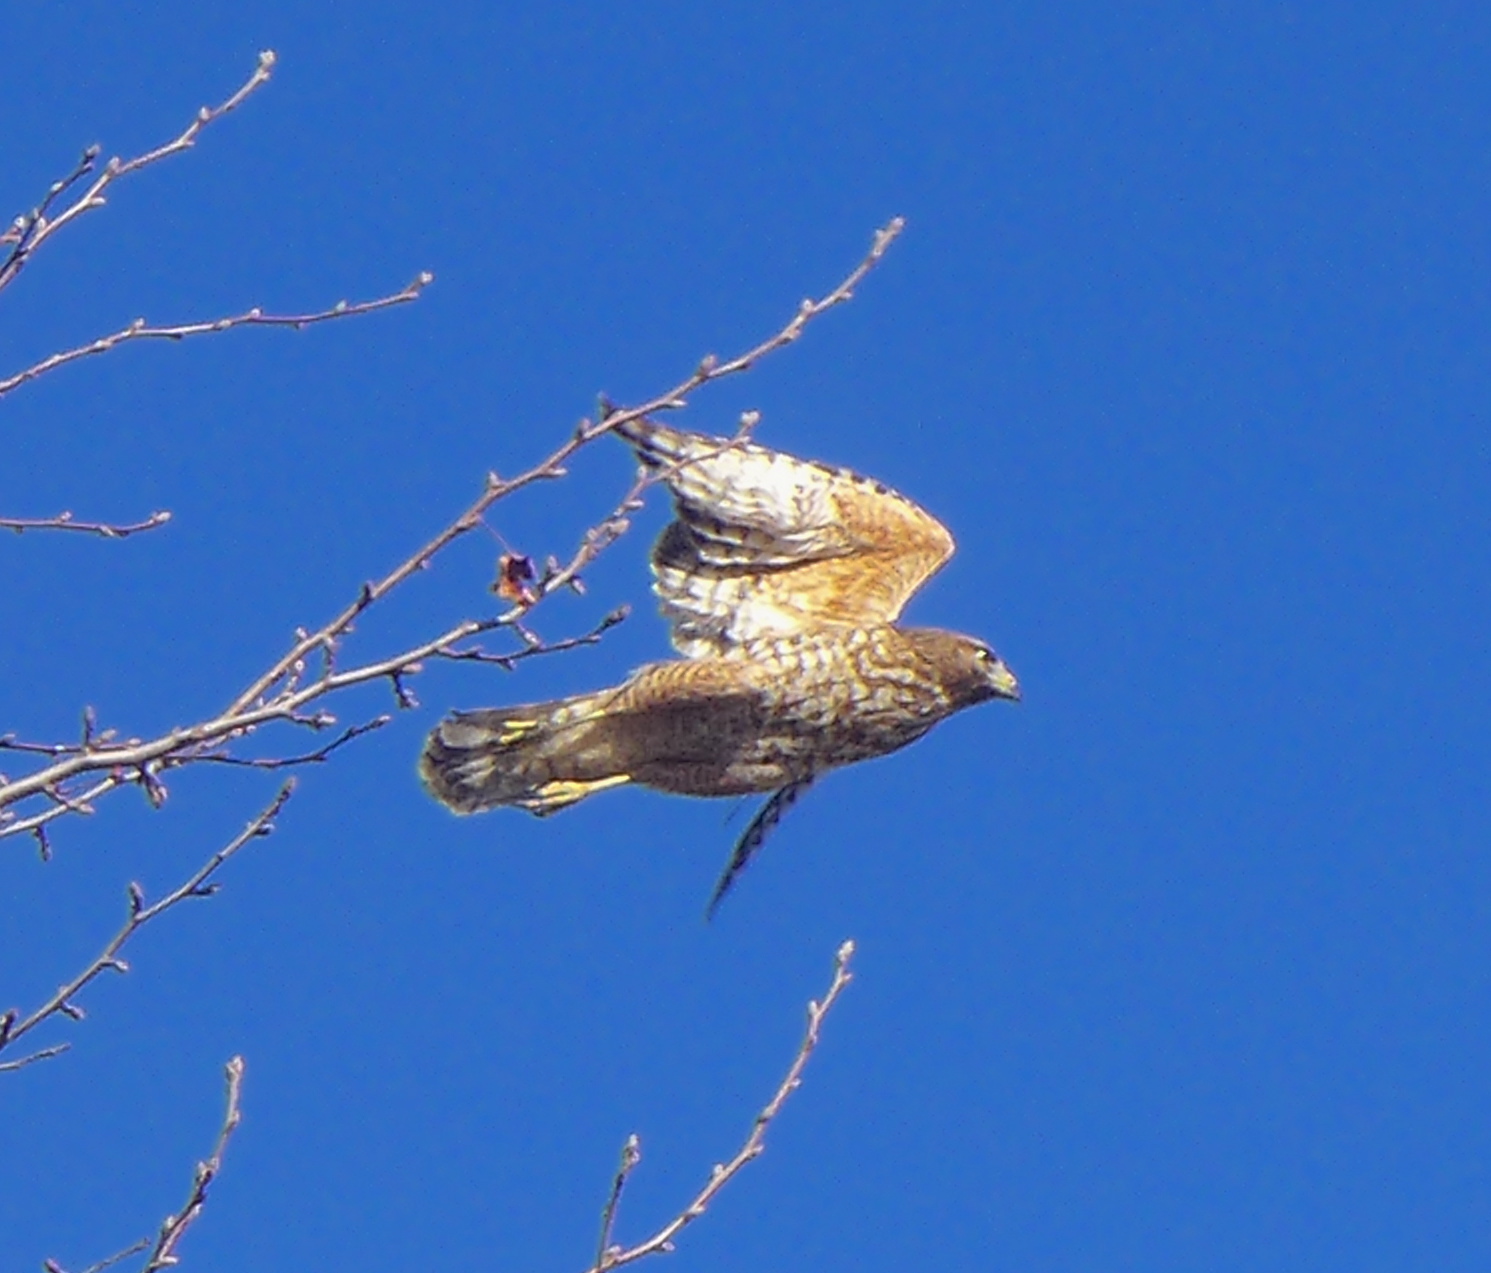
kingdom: Animalia
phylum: Chordata
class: Aves
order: Accipitriformes
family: Accipitridae
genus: Buteo
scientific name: Buteo lineatus
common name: Red-shouldered hawk
